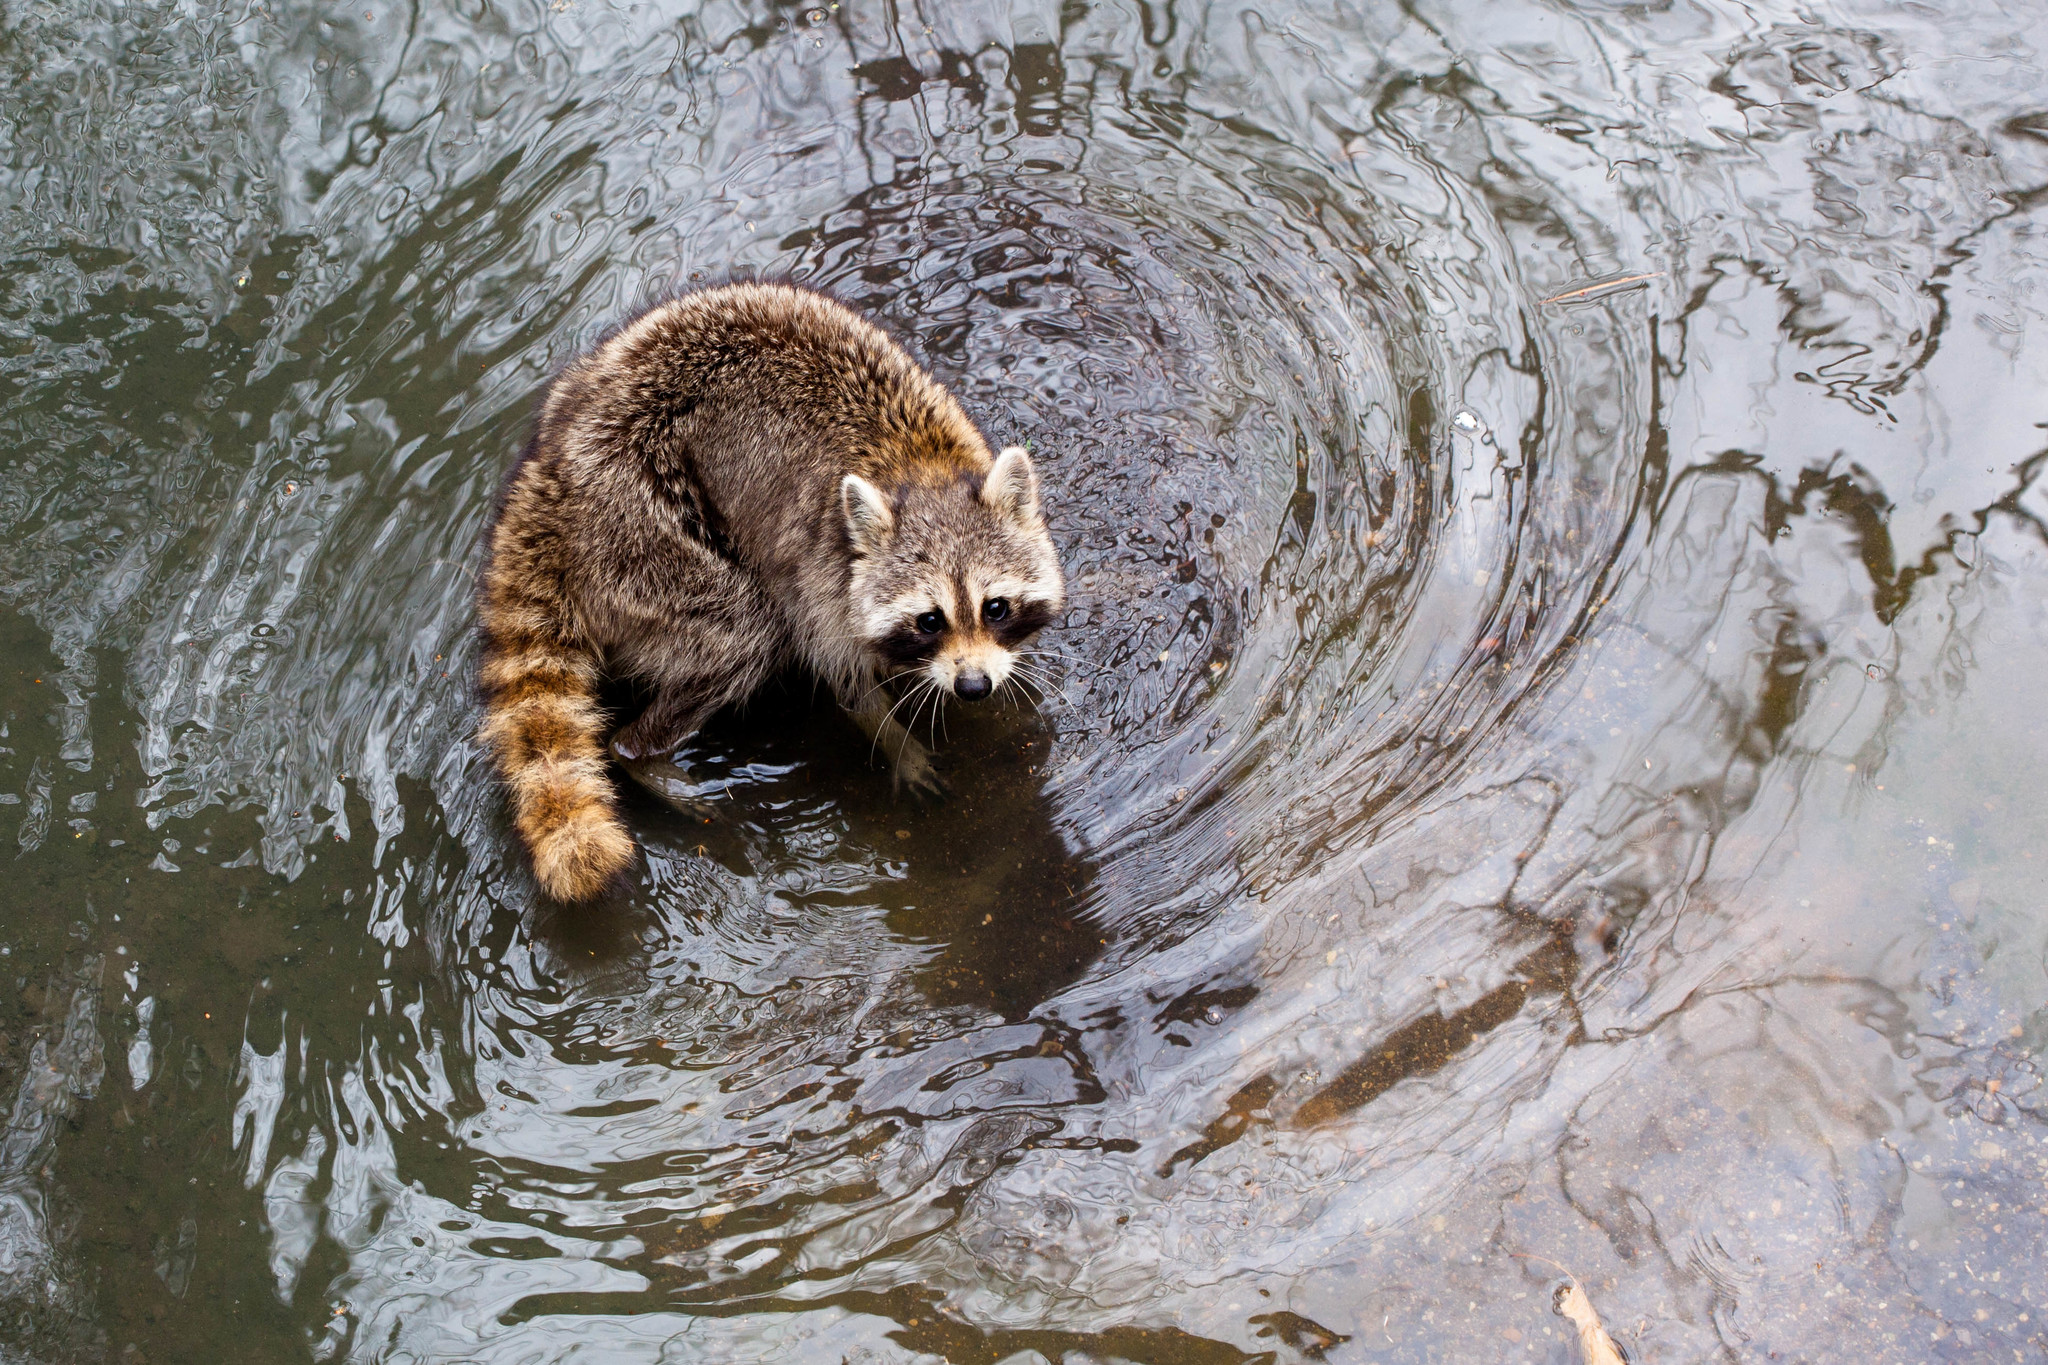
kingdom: Animalia
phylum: Chordata
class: Mammalia
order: Carnivora
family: Procyonidae
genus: Procyon
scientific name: Procyon lotor
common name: Raccoon
